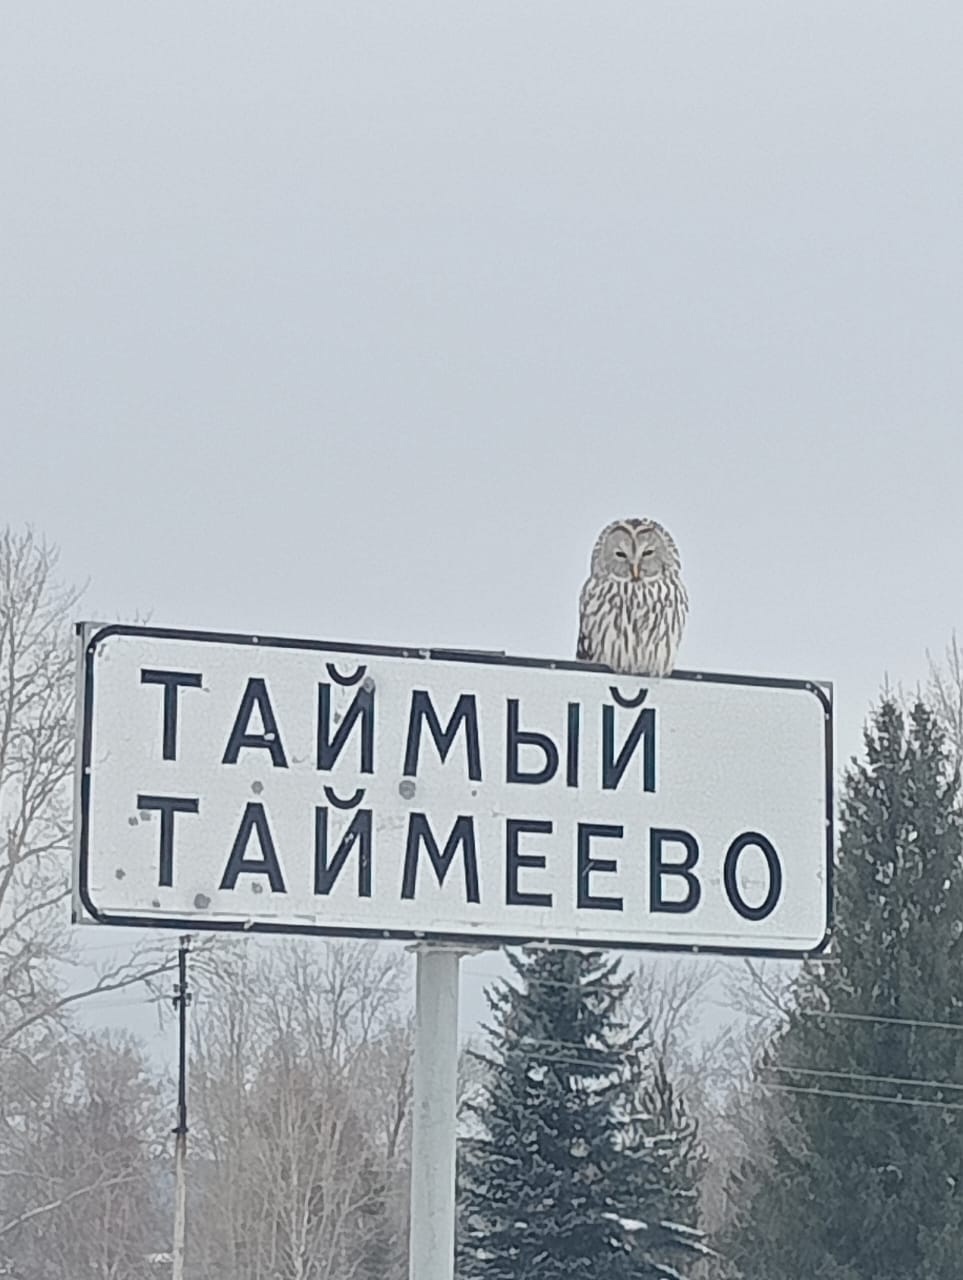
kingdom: Animalia
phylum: Chordata
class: Aves
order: Strigiformes
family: Strigidae
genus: Strix
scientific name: Strix uralensis
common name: Ural owl
